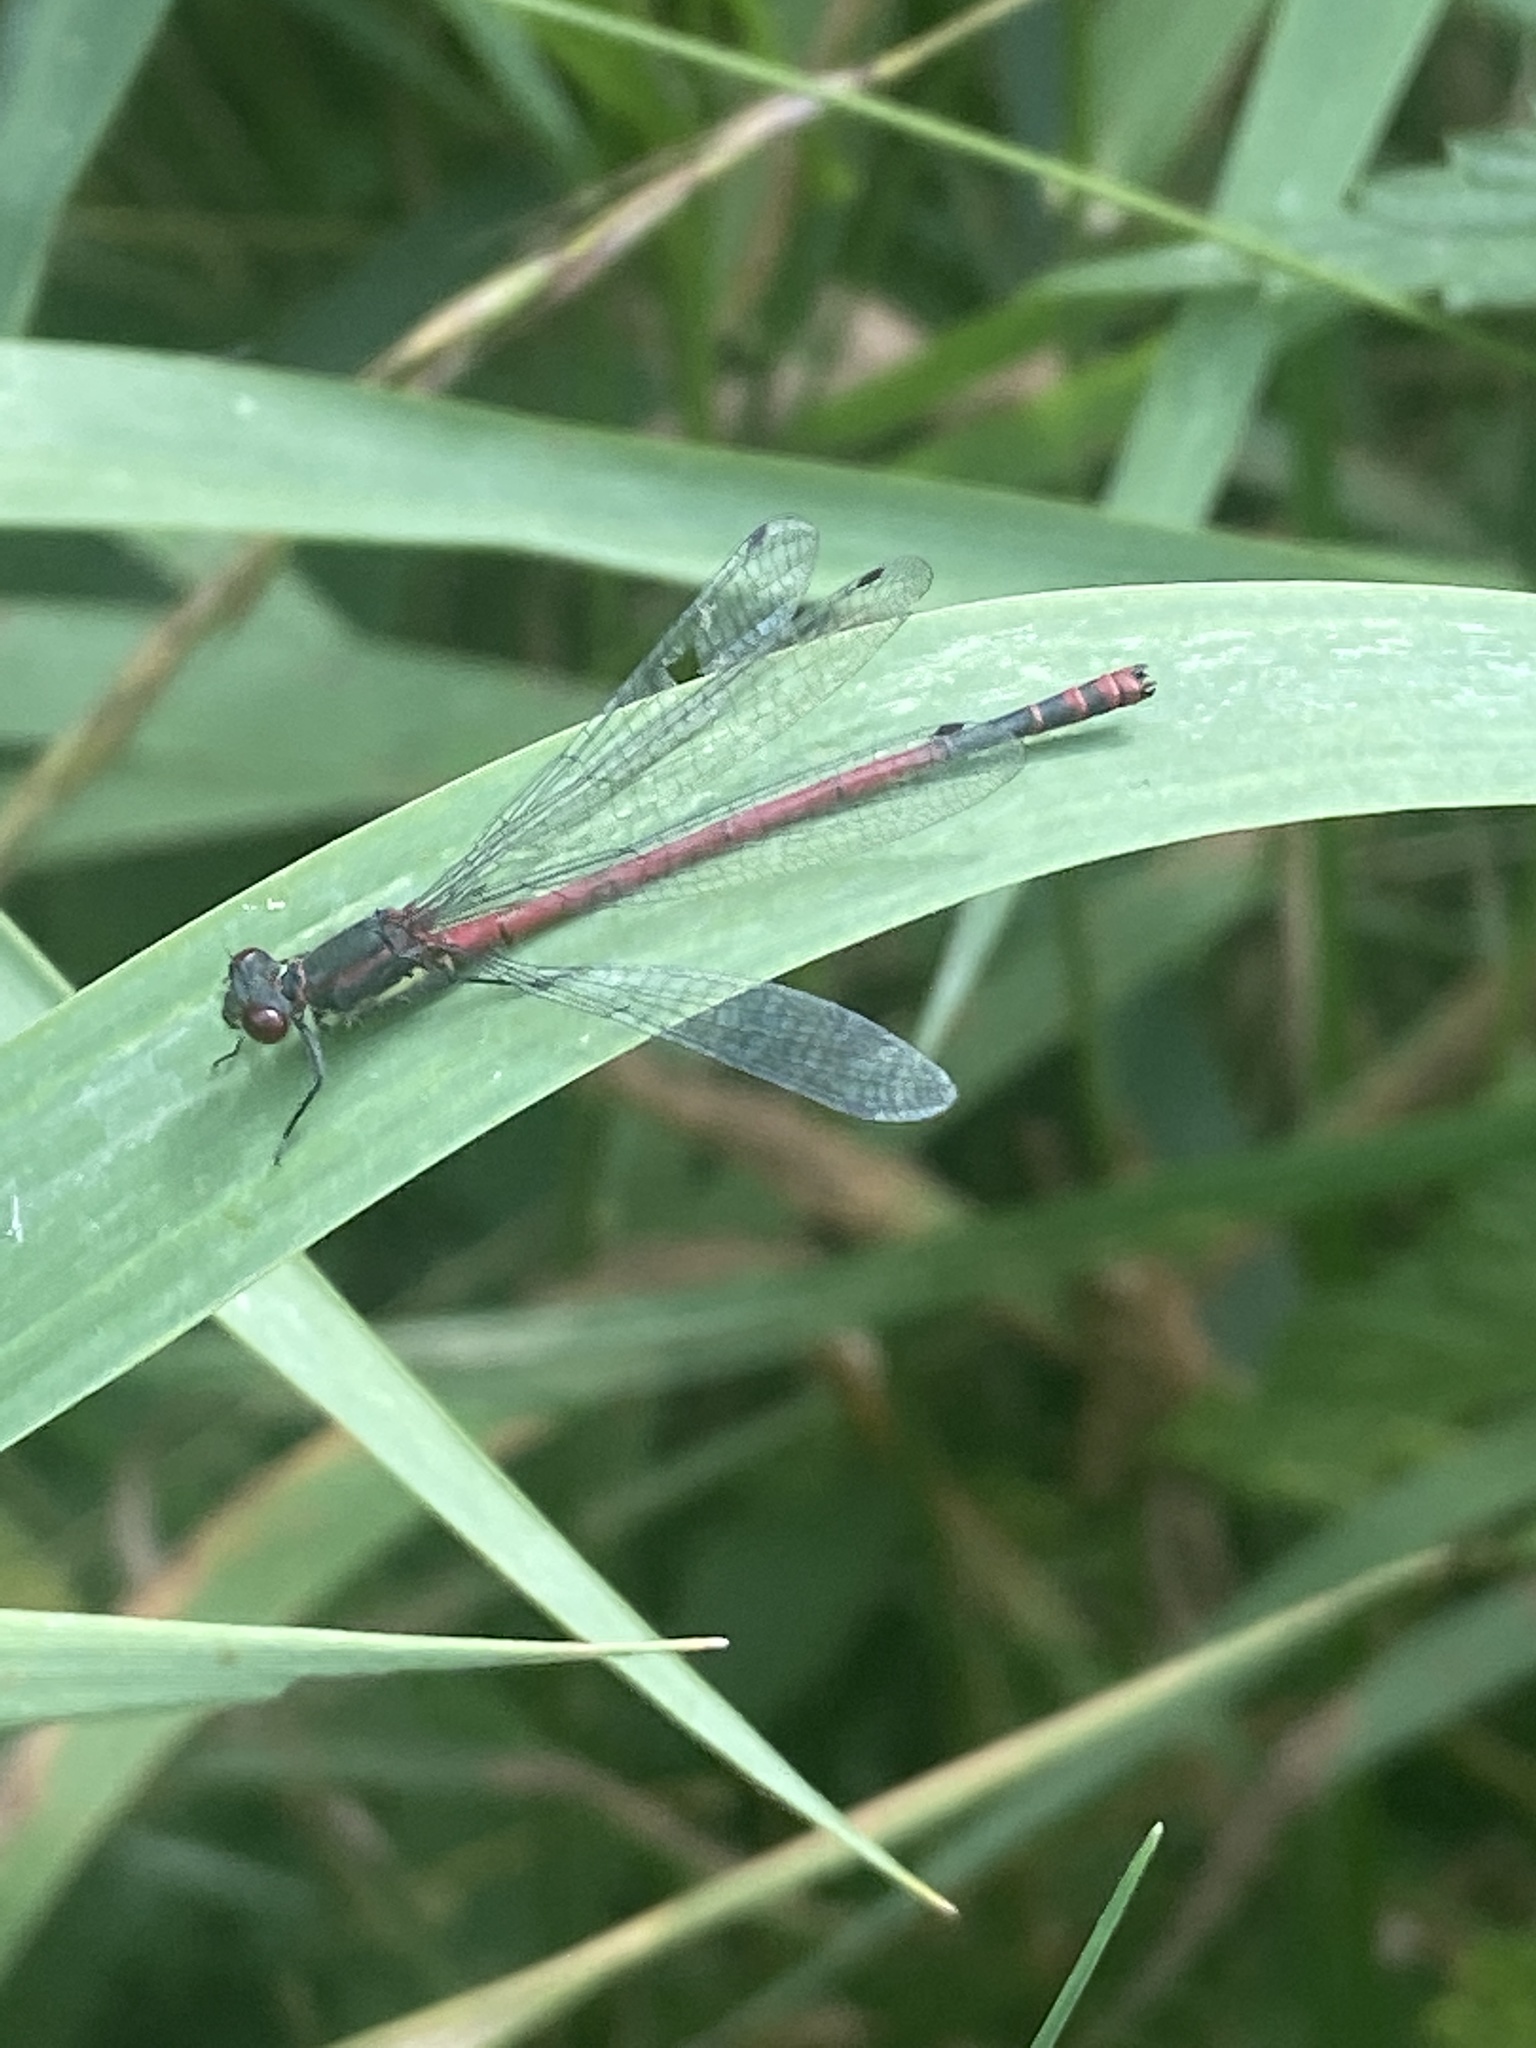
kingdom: Animalia
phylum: Arthropoda
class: Insecta
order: Odonata
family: Coenagrionidae
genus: Pyrrhosoma
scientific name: Pyrrhosoma nymphula
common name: Large red damsel
